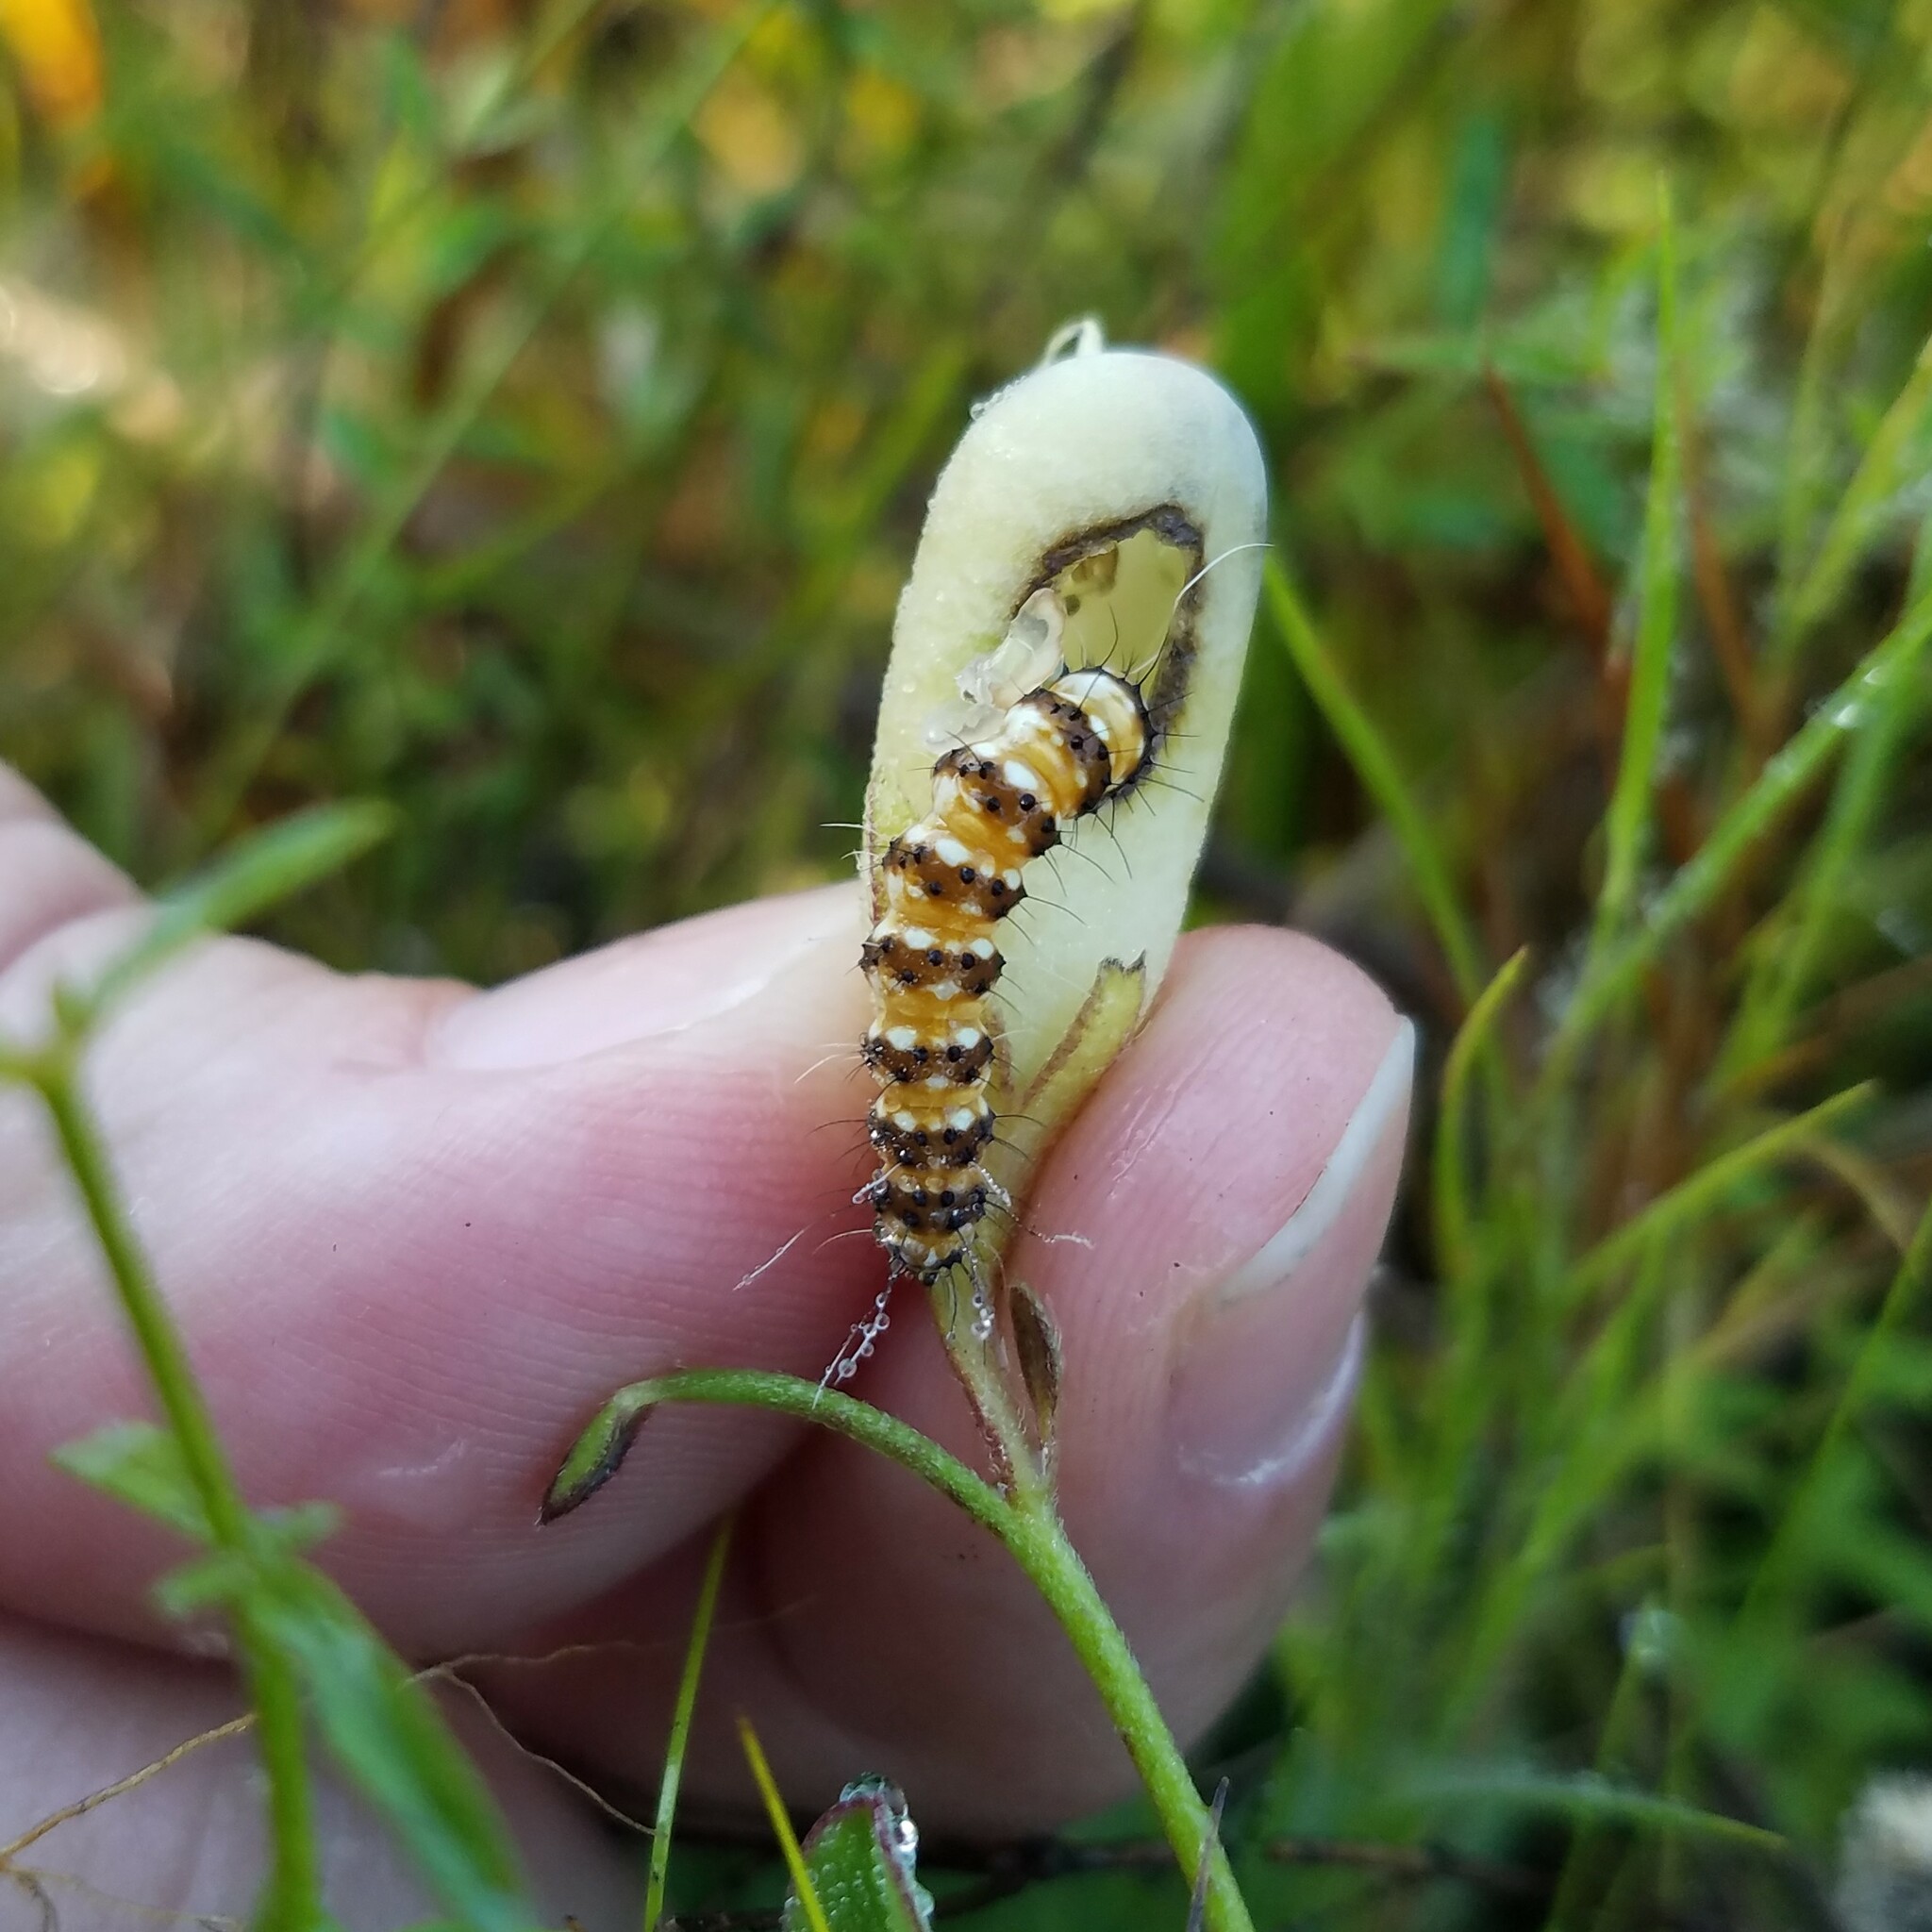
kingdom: Animalia
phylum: Arthropoda
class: Insecta
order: Lepidoptera
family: Erebidae
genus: Utetheisa
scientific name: Utetheisa ornatrix
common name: Beautiful utetheisa
